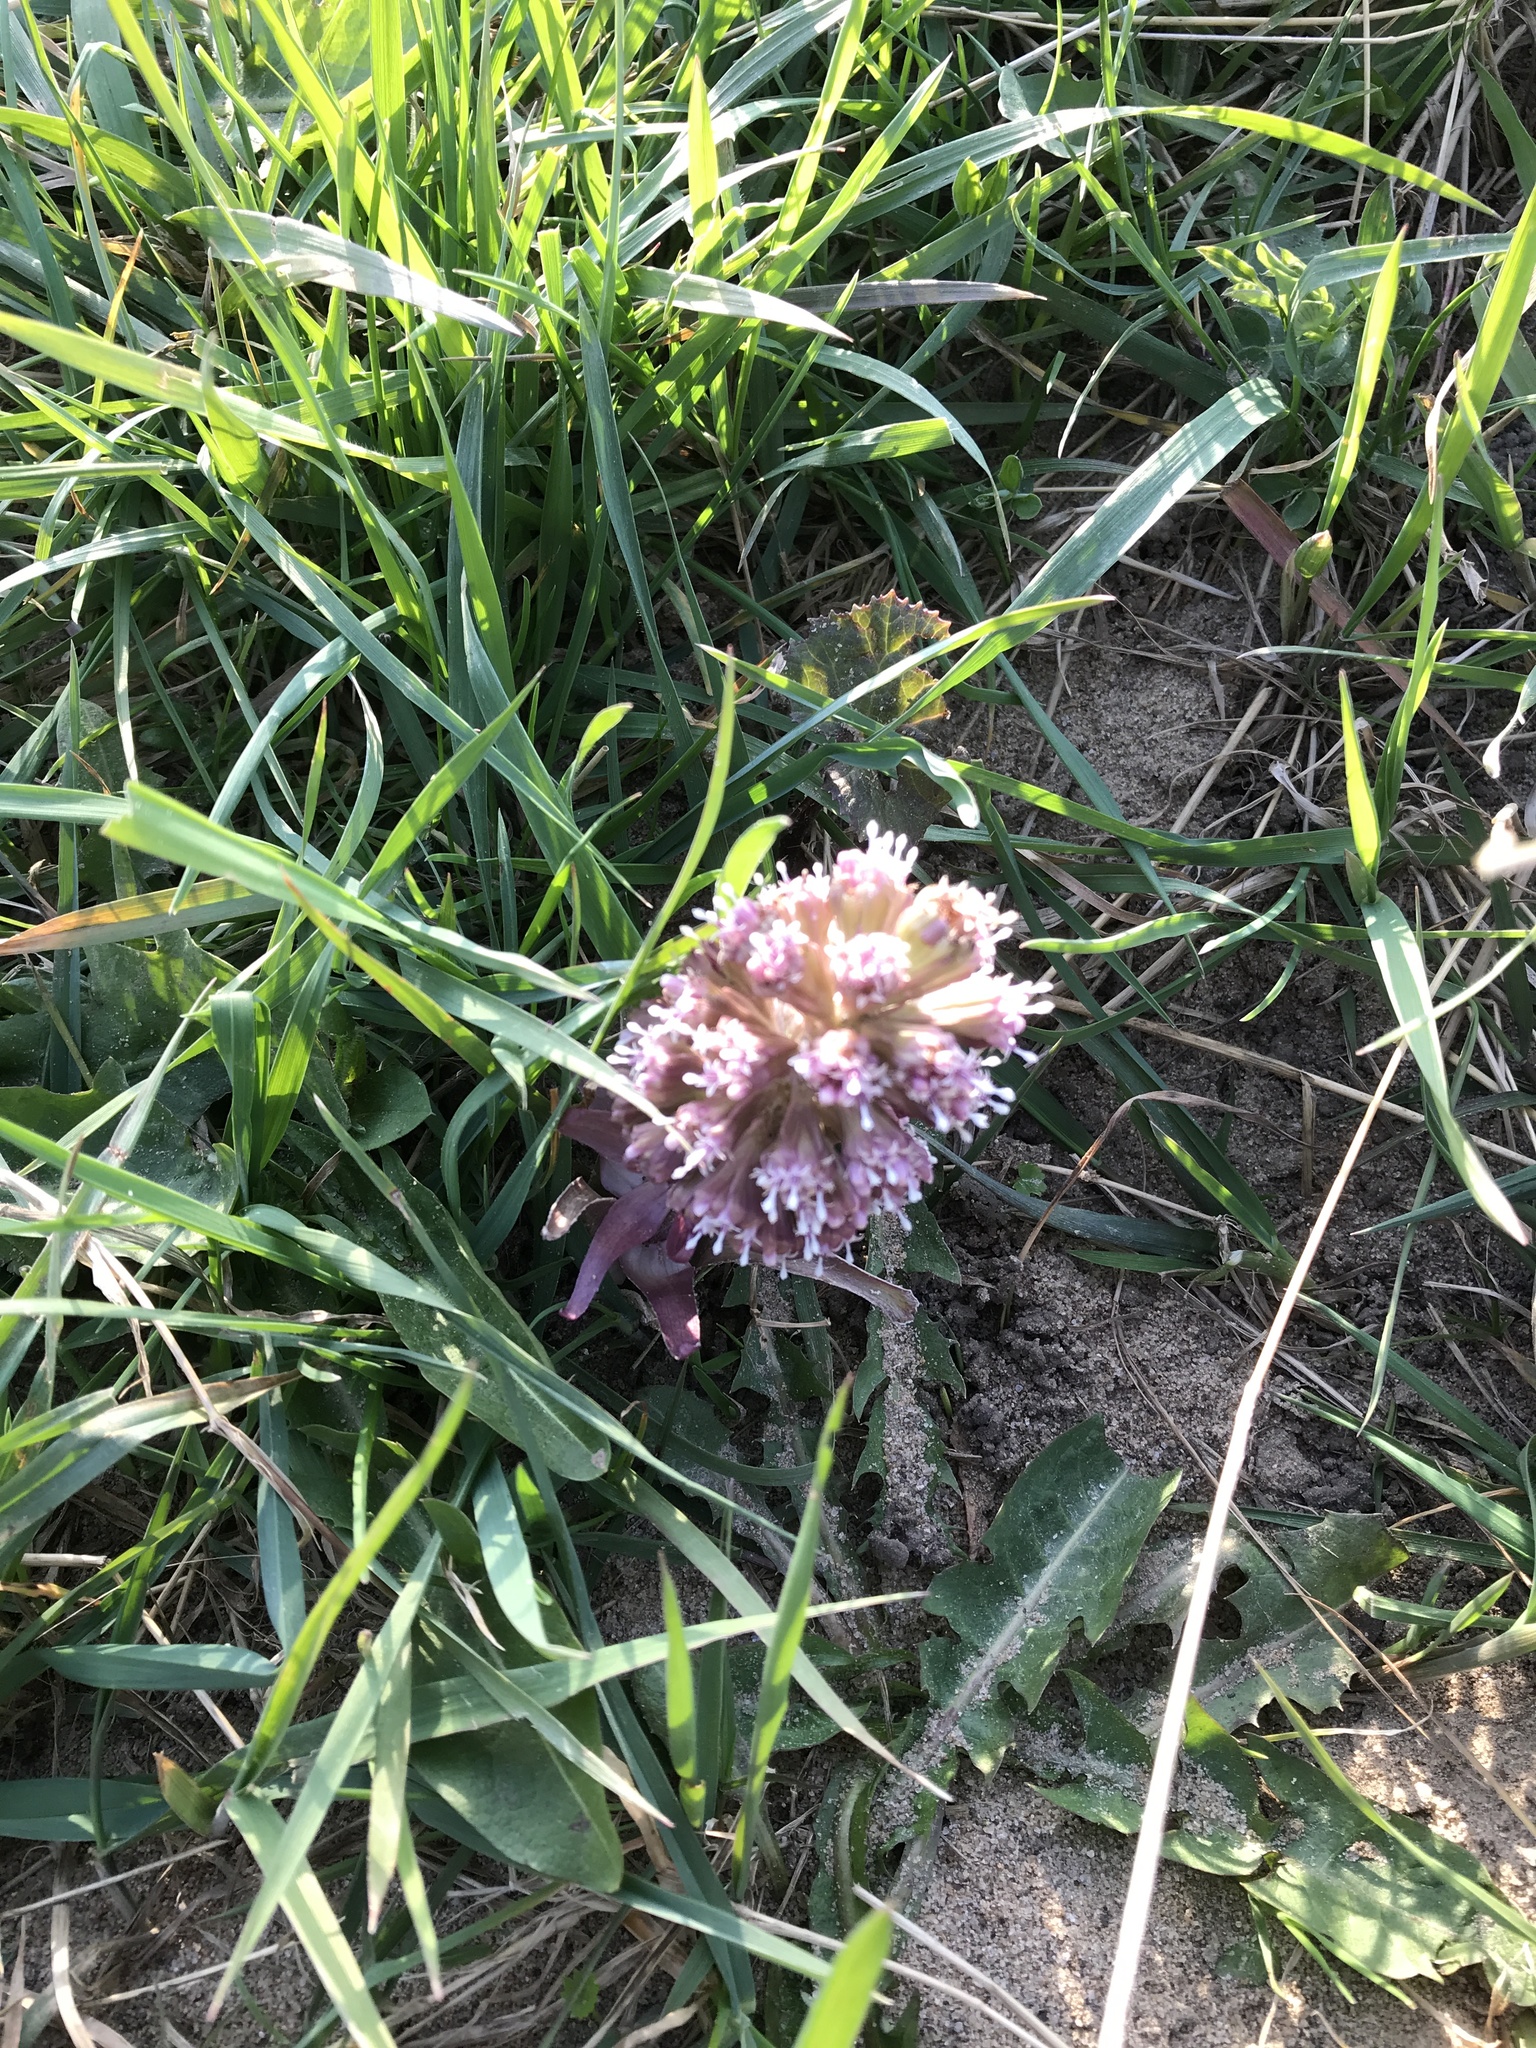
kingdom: Plantae
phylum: Tracheophyta
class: Magnoliopsida
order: Asterales
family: Asteraceae
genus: Petasites
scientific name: Petasites hybridus
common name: Butterbur
